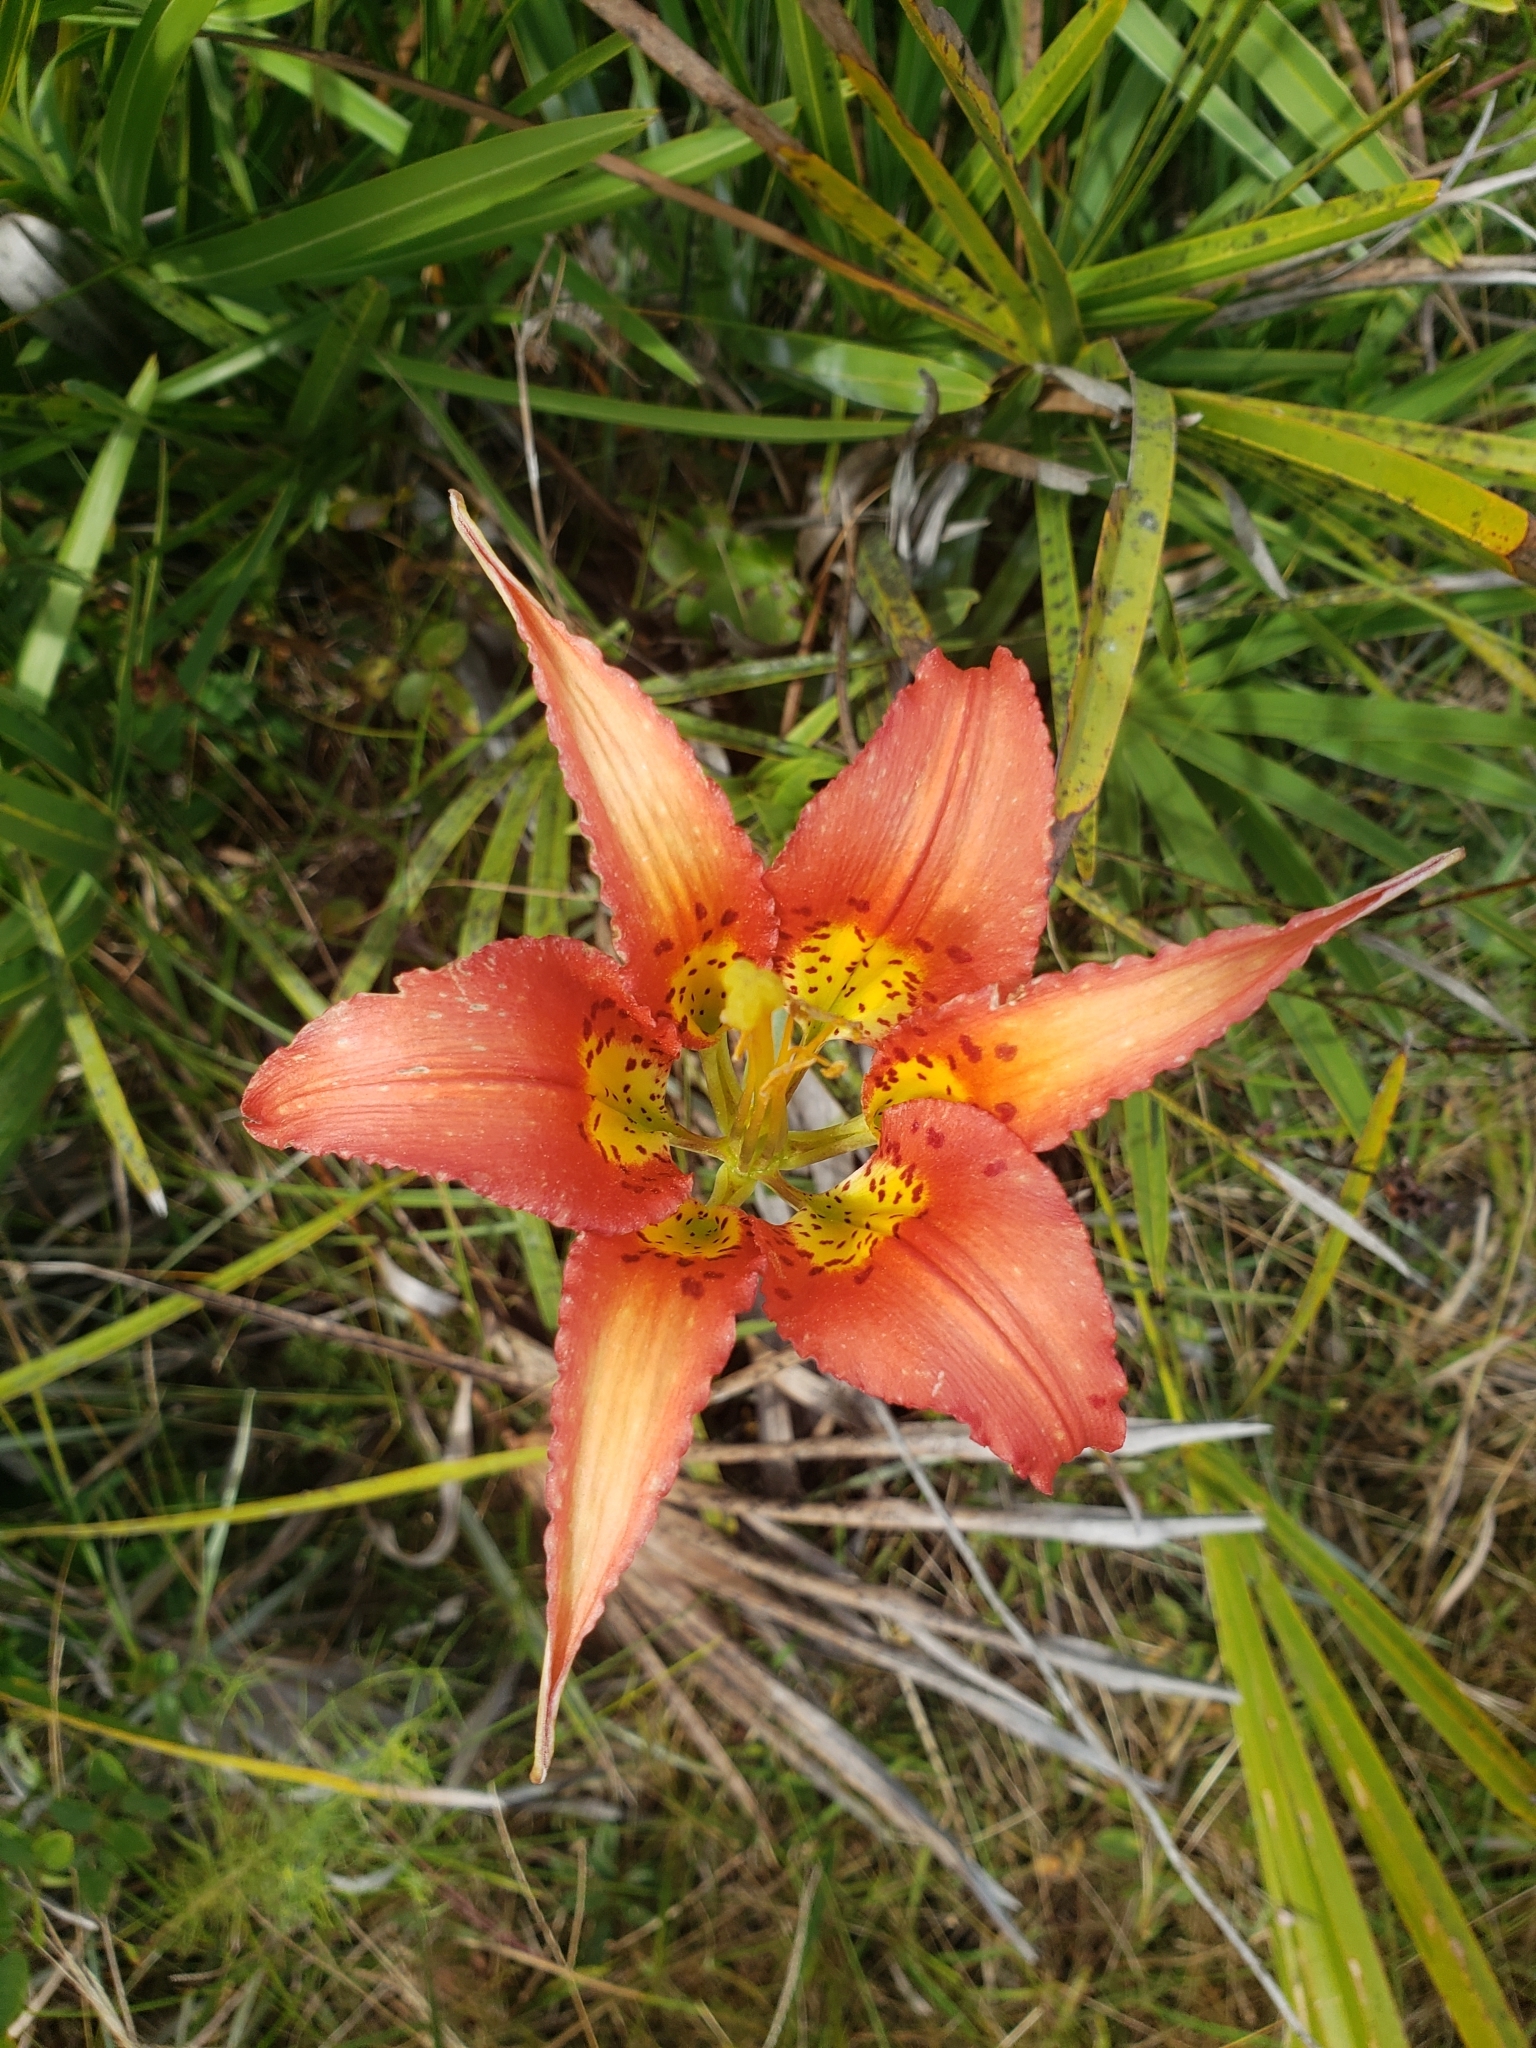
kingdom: Plantae
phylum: Tracheophyta
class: Liliopsida
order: Liliales
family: Liliaceae
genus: Lilium
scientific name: Lilium catesbaei
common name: Catesby's lily
